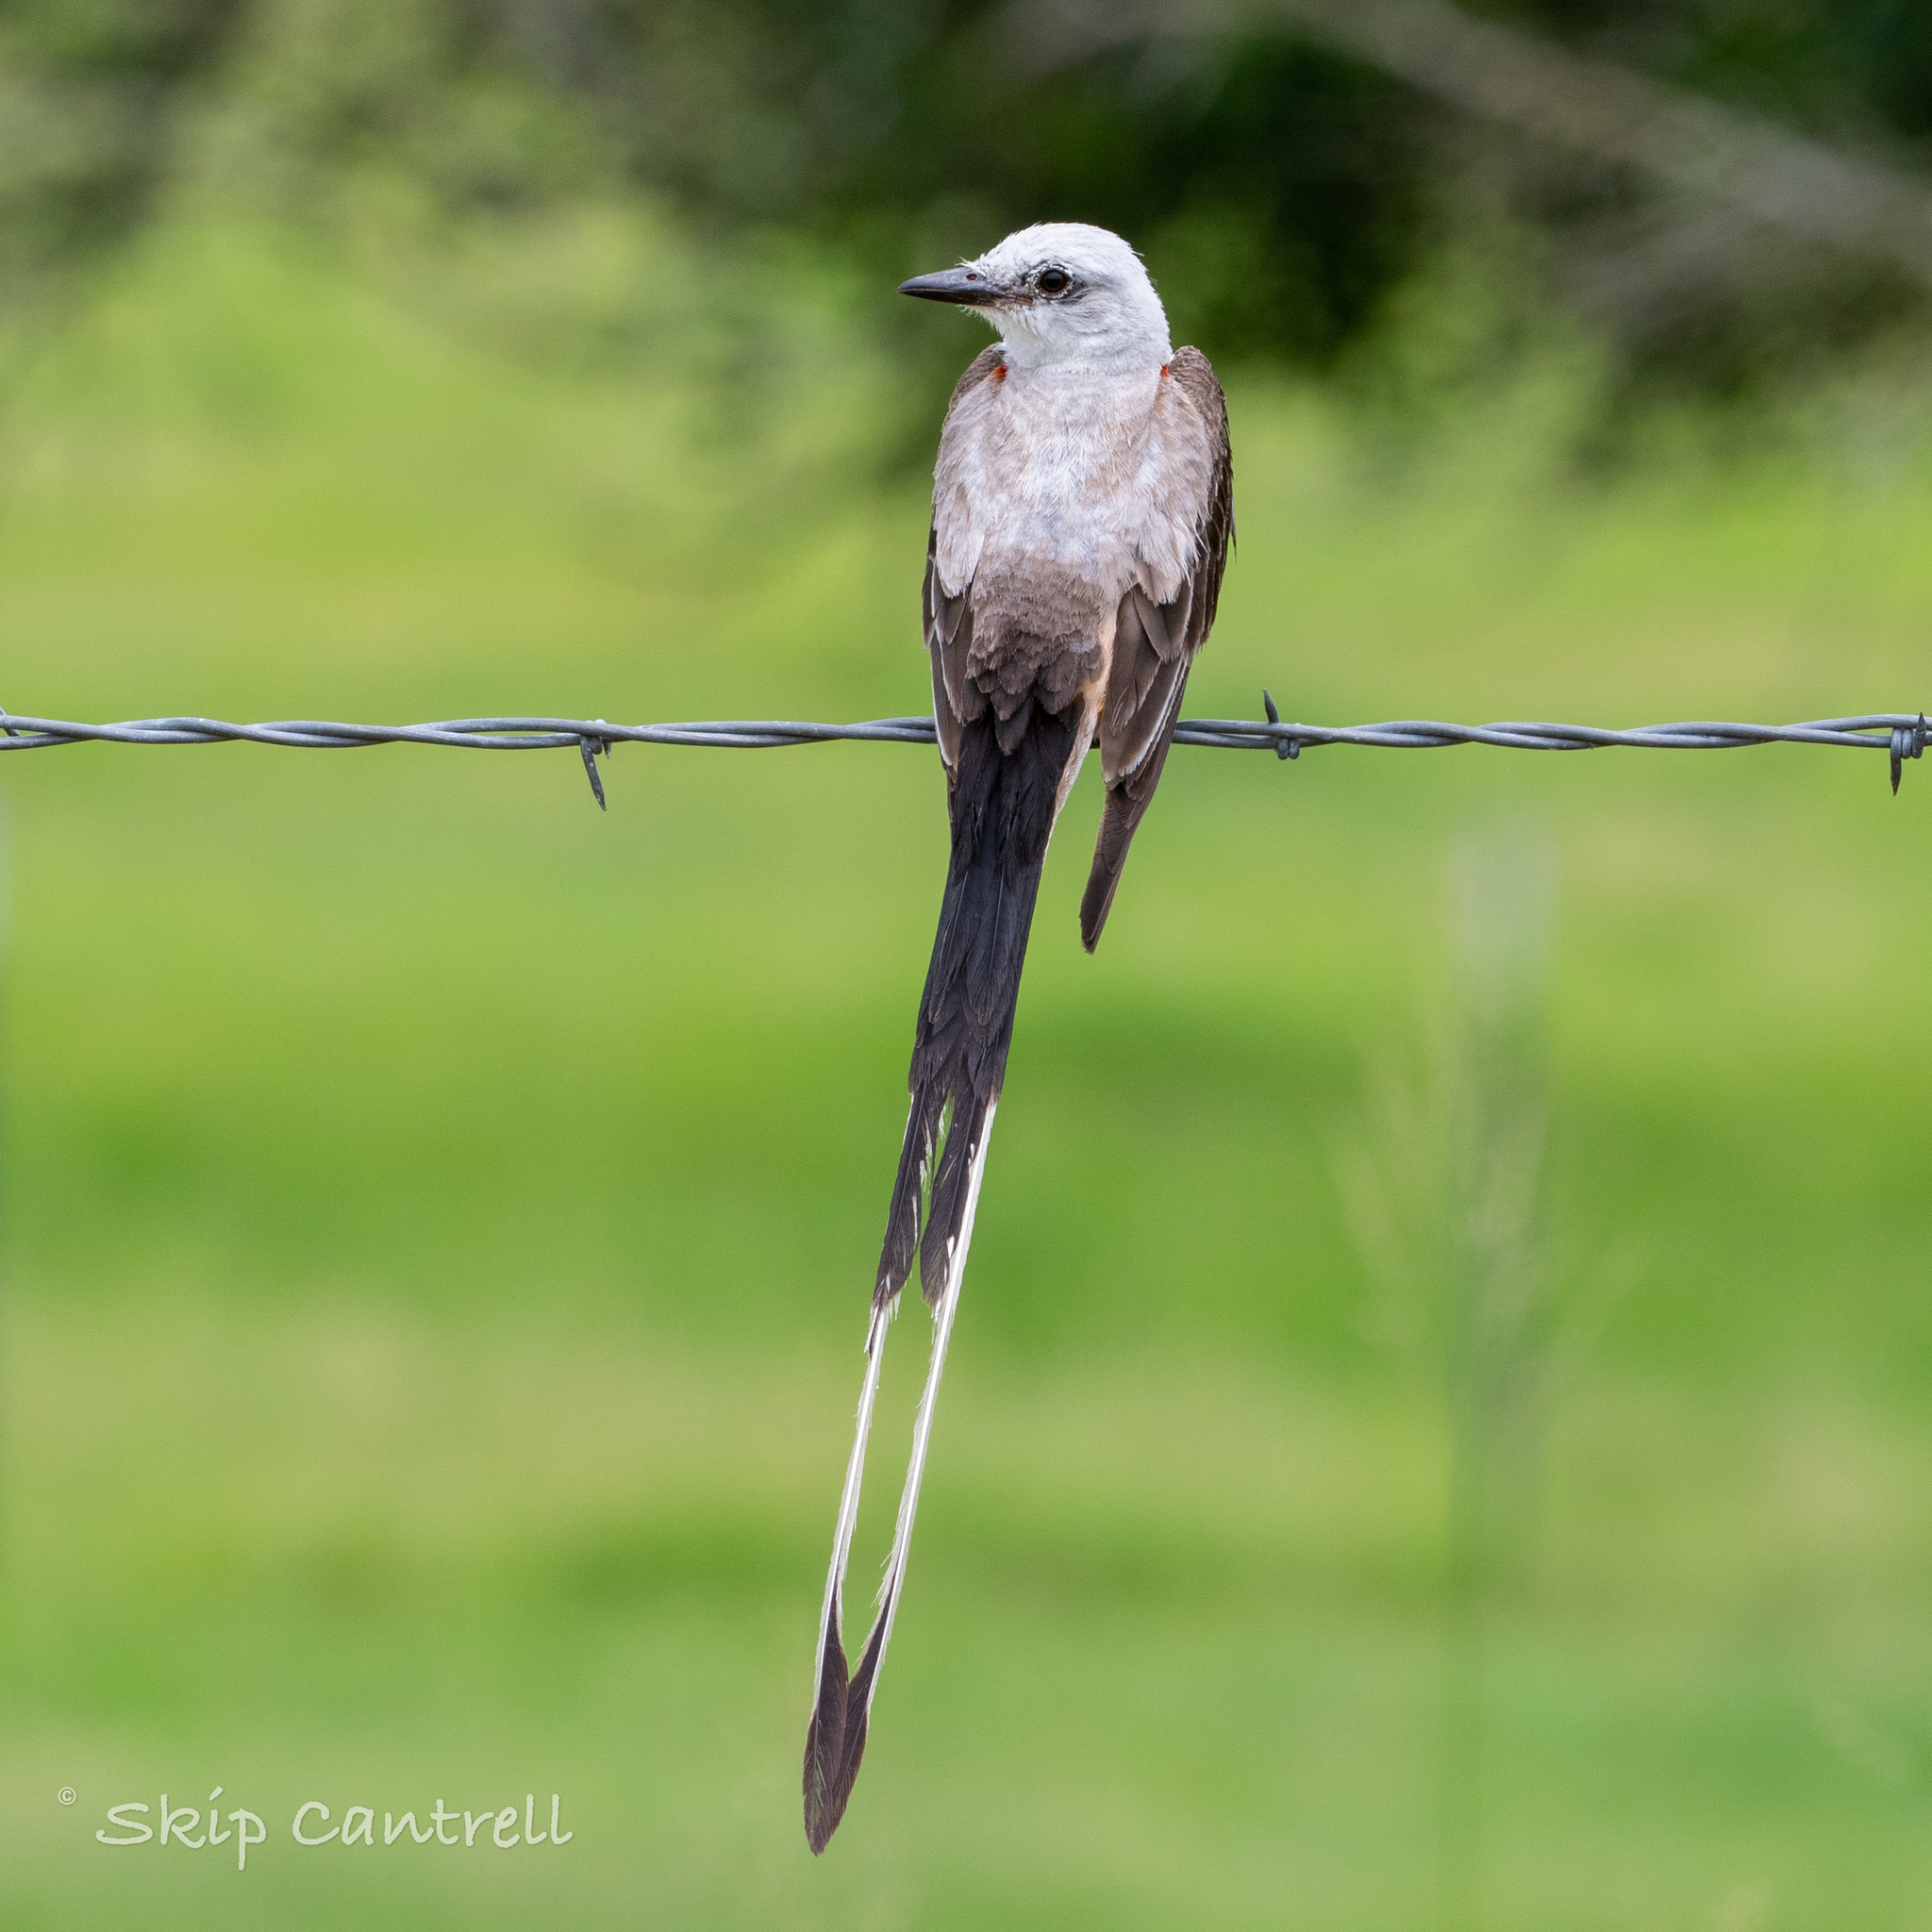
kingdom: Animalia
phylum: Chordata
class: Aves
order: Passeriformes
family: Tyrannidae
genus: Tyrannus
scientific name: Tyrannus forficatus
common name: Scissor-tailed flycatcher
